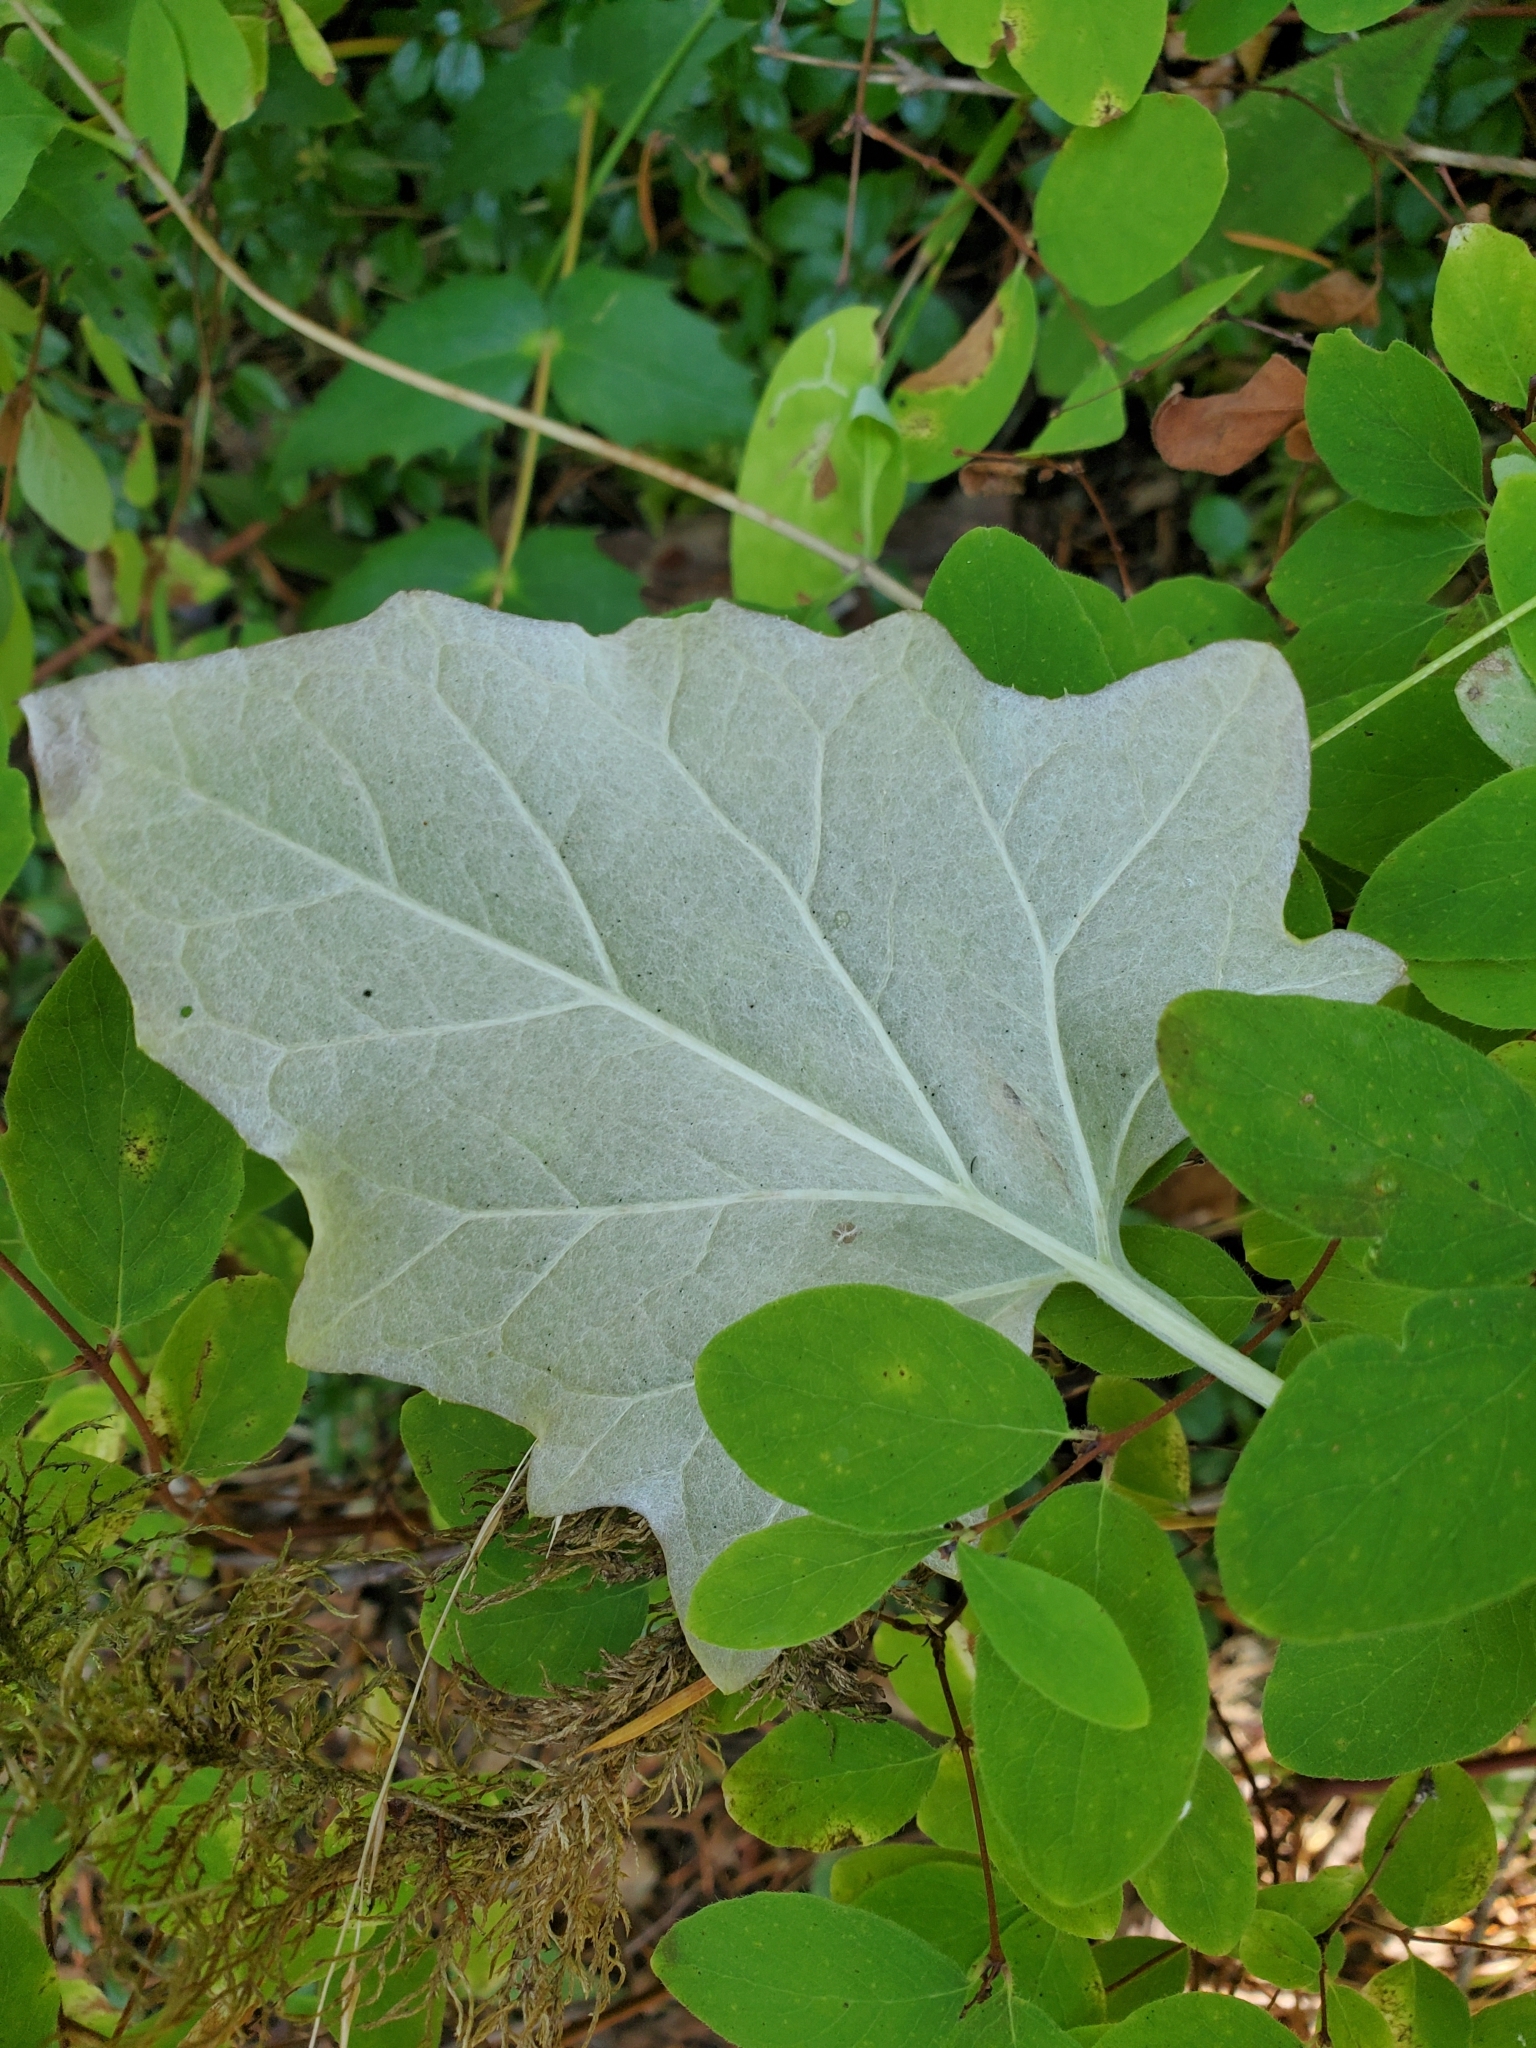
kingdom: Plantae
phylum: Tracheophyta
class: Magnoliopsida
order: Asterales
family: Asteraceae
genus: Adenocaulon
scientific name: Adenocaulon bicolor
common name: Trailplant
